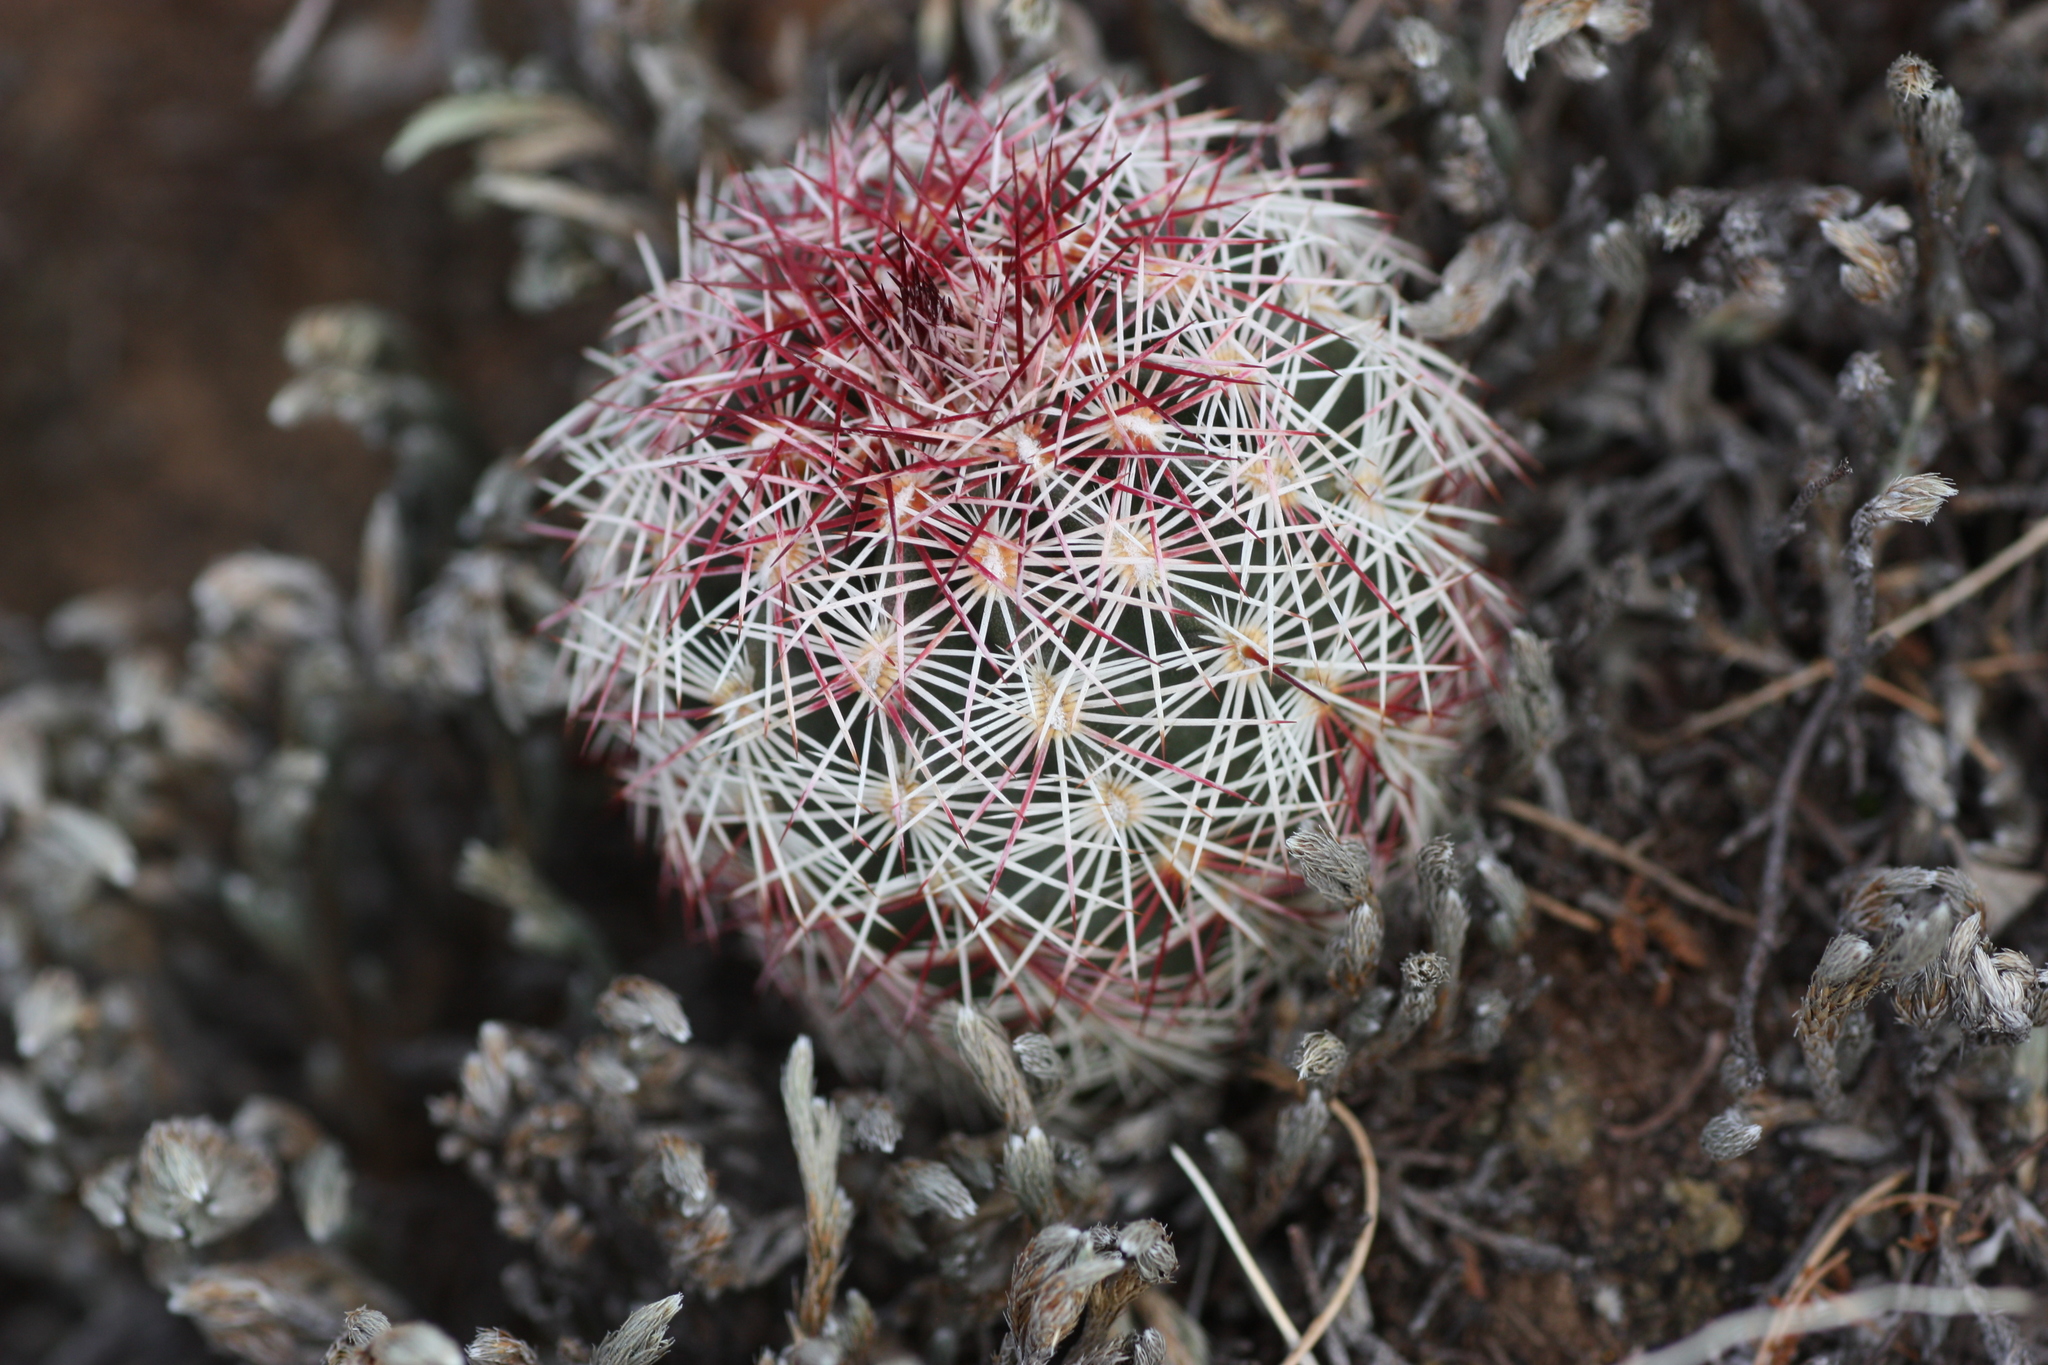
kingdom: Plantae
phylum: Tracheophyta
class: Magnoliopsida
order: Caryophyllales
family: Cactaceae
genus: Echinocereus
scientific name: Echinocereus viridiflorus
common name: Nylon hedgehog cactus
